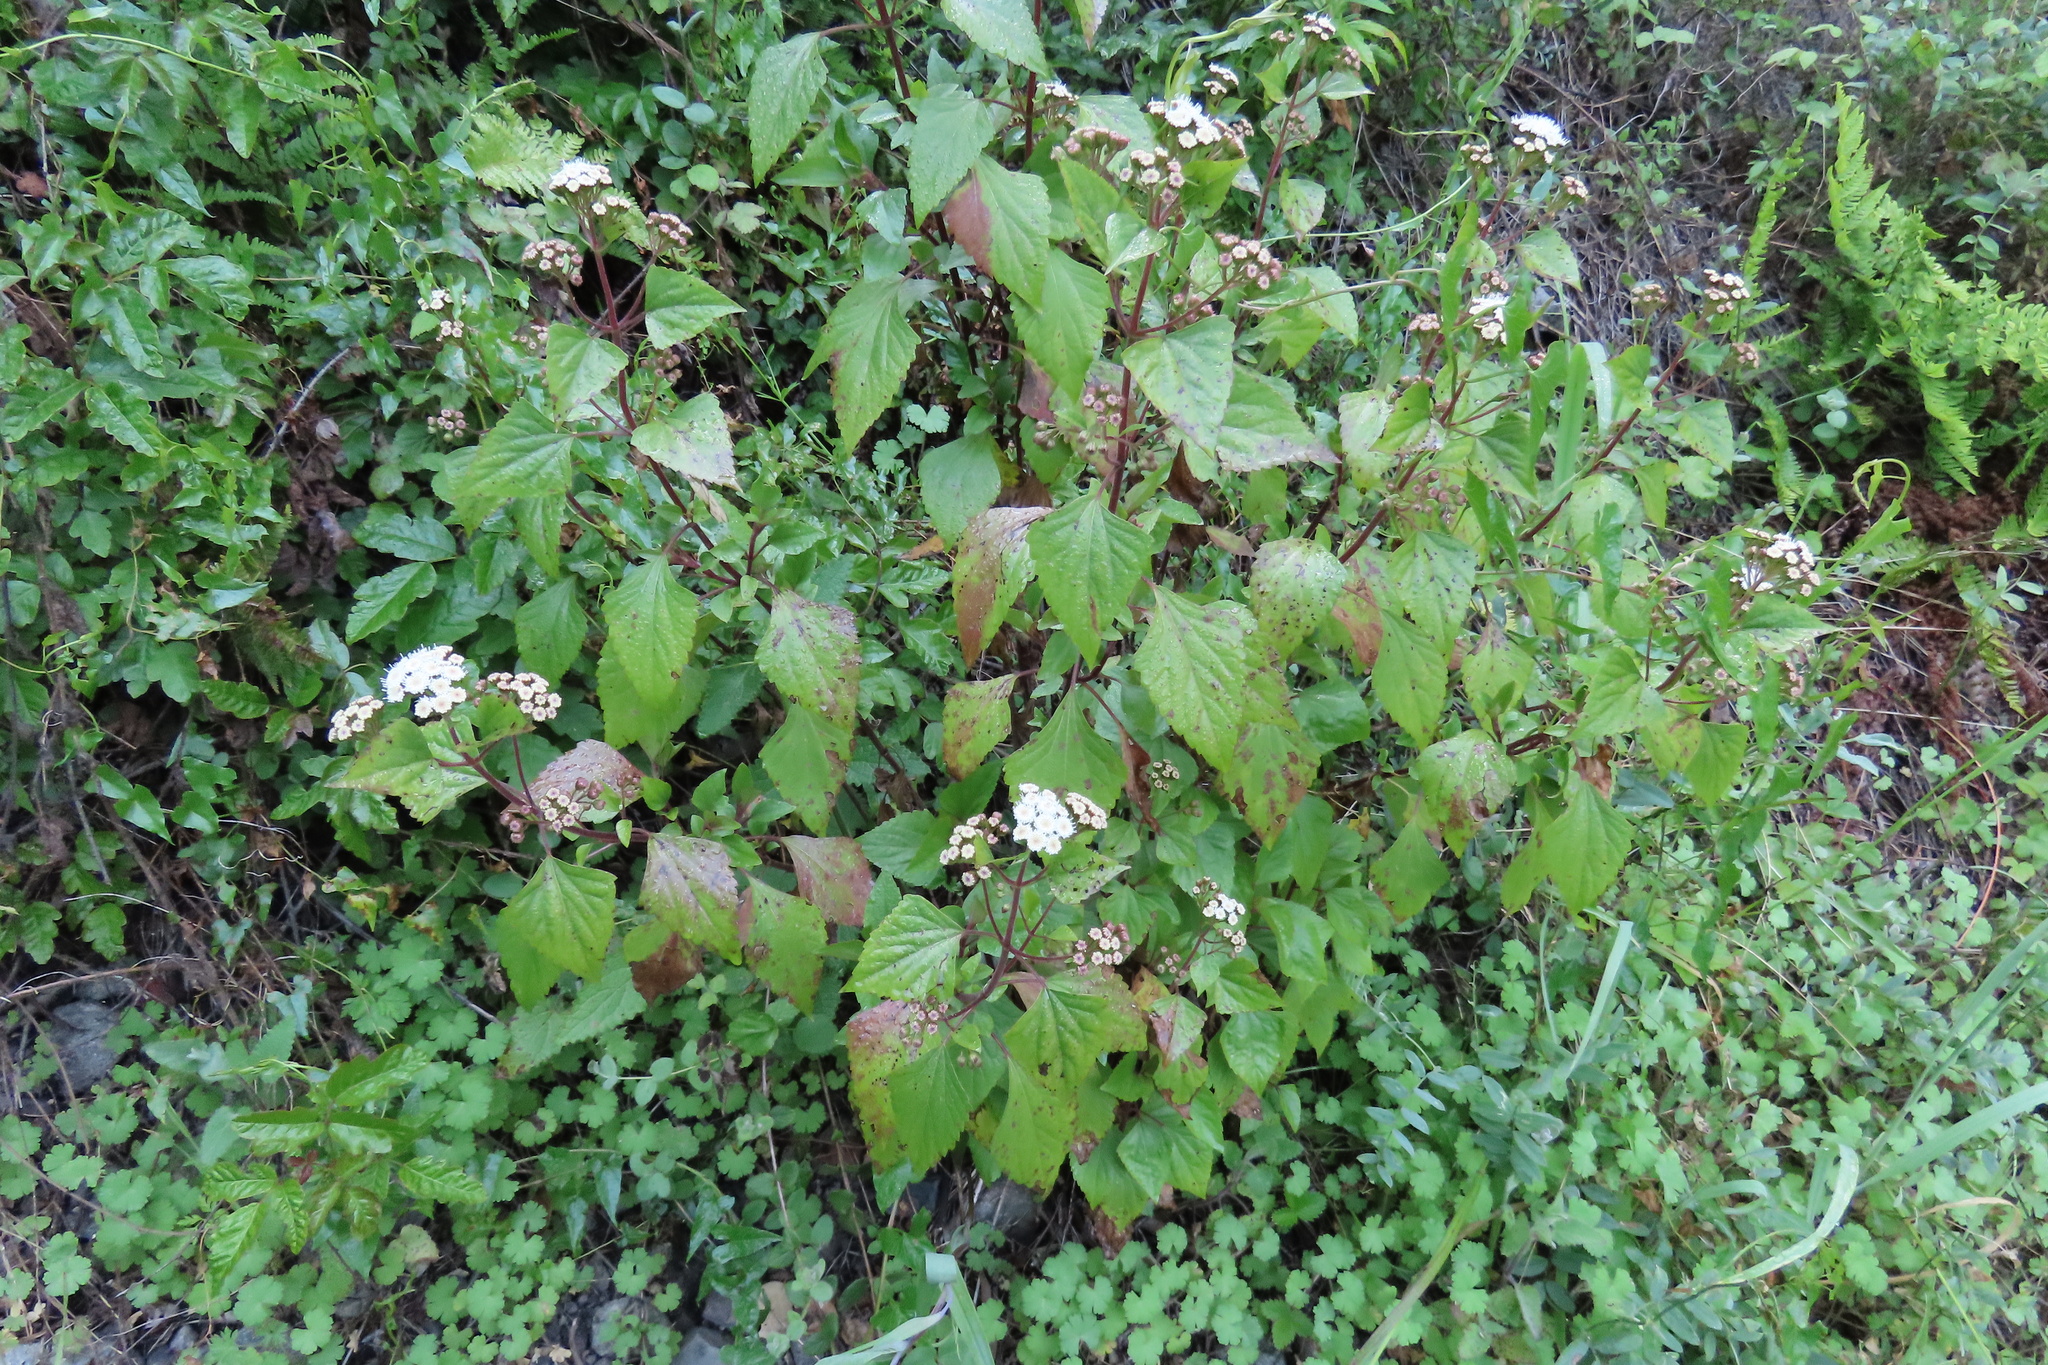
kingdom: Plantae
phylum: Tracheophyta
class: Magnoliopsida
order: Asterales
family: Asteraceae
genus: Ageratina
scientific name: Ageratina adenophora
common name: Sticky snakeroot
